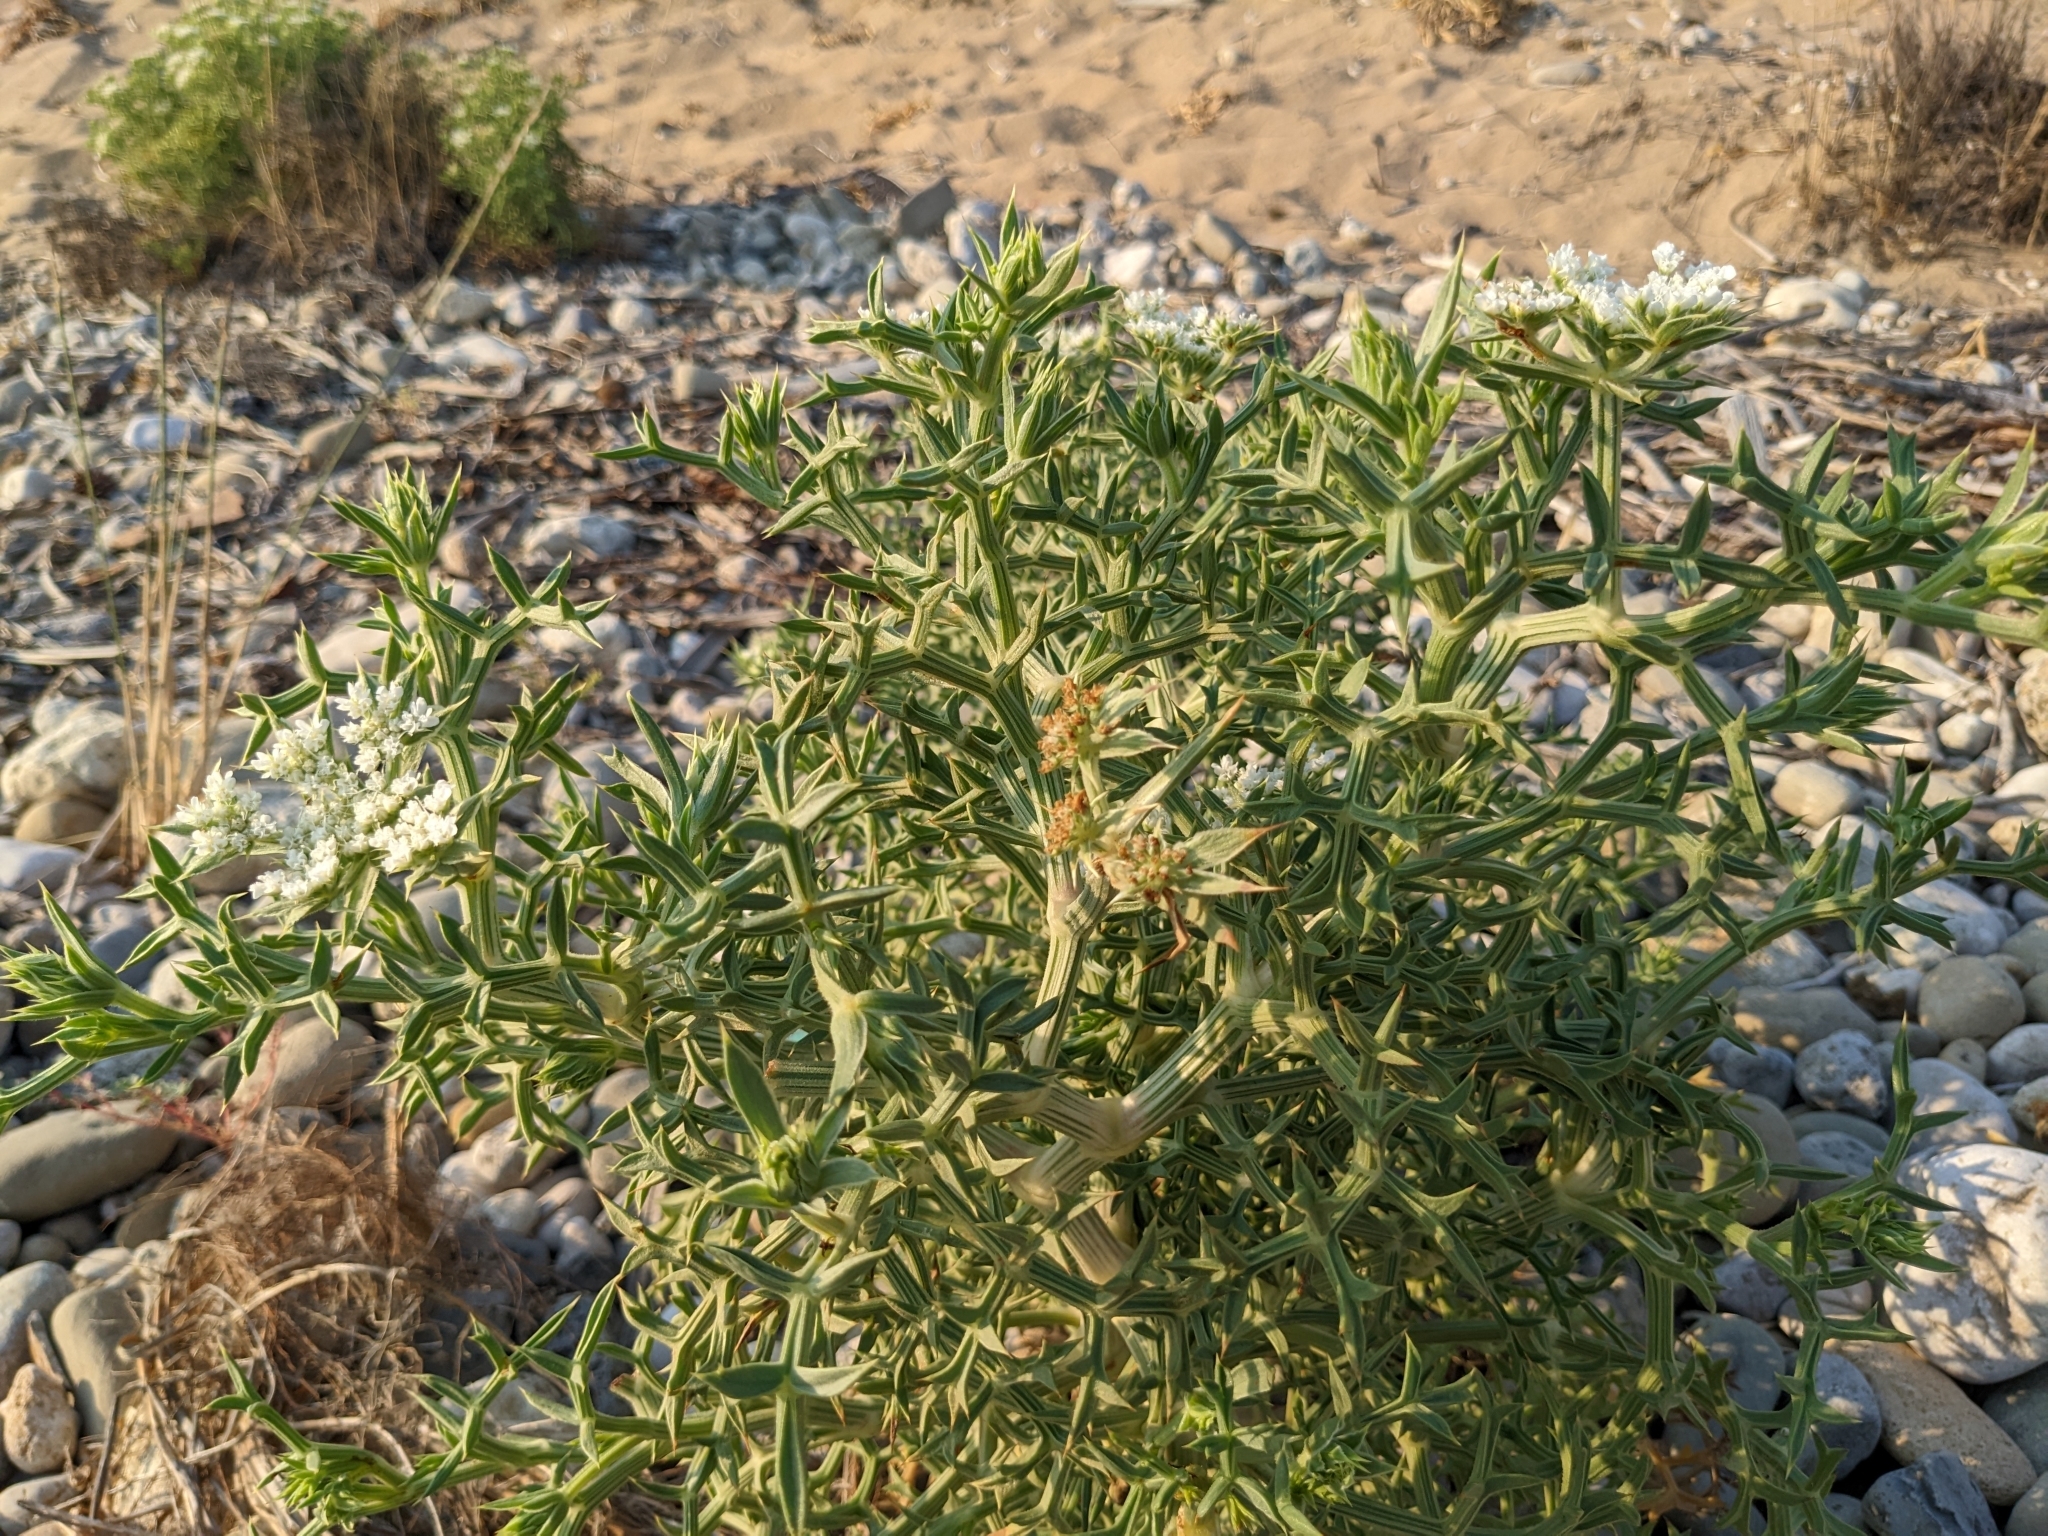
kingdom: Plantae
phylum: Tracheophyta
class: Magnoliopsida
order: Apiales
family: Apiaceae
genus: Echinophora
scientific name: Echinophora spinosa
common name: Prickly samphire
